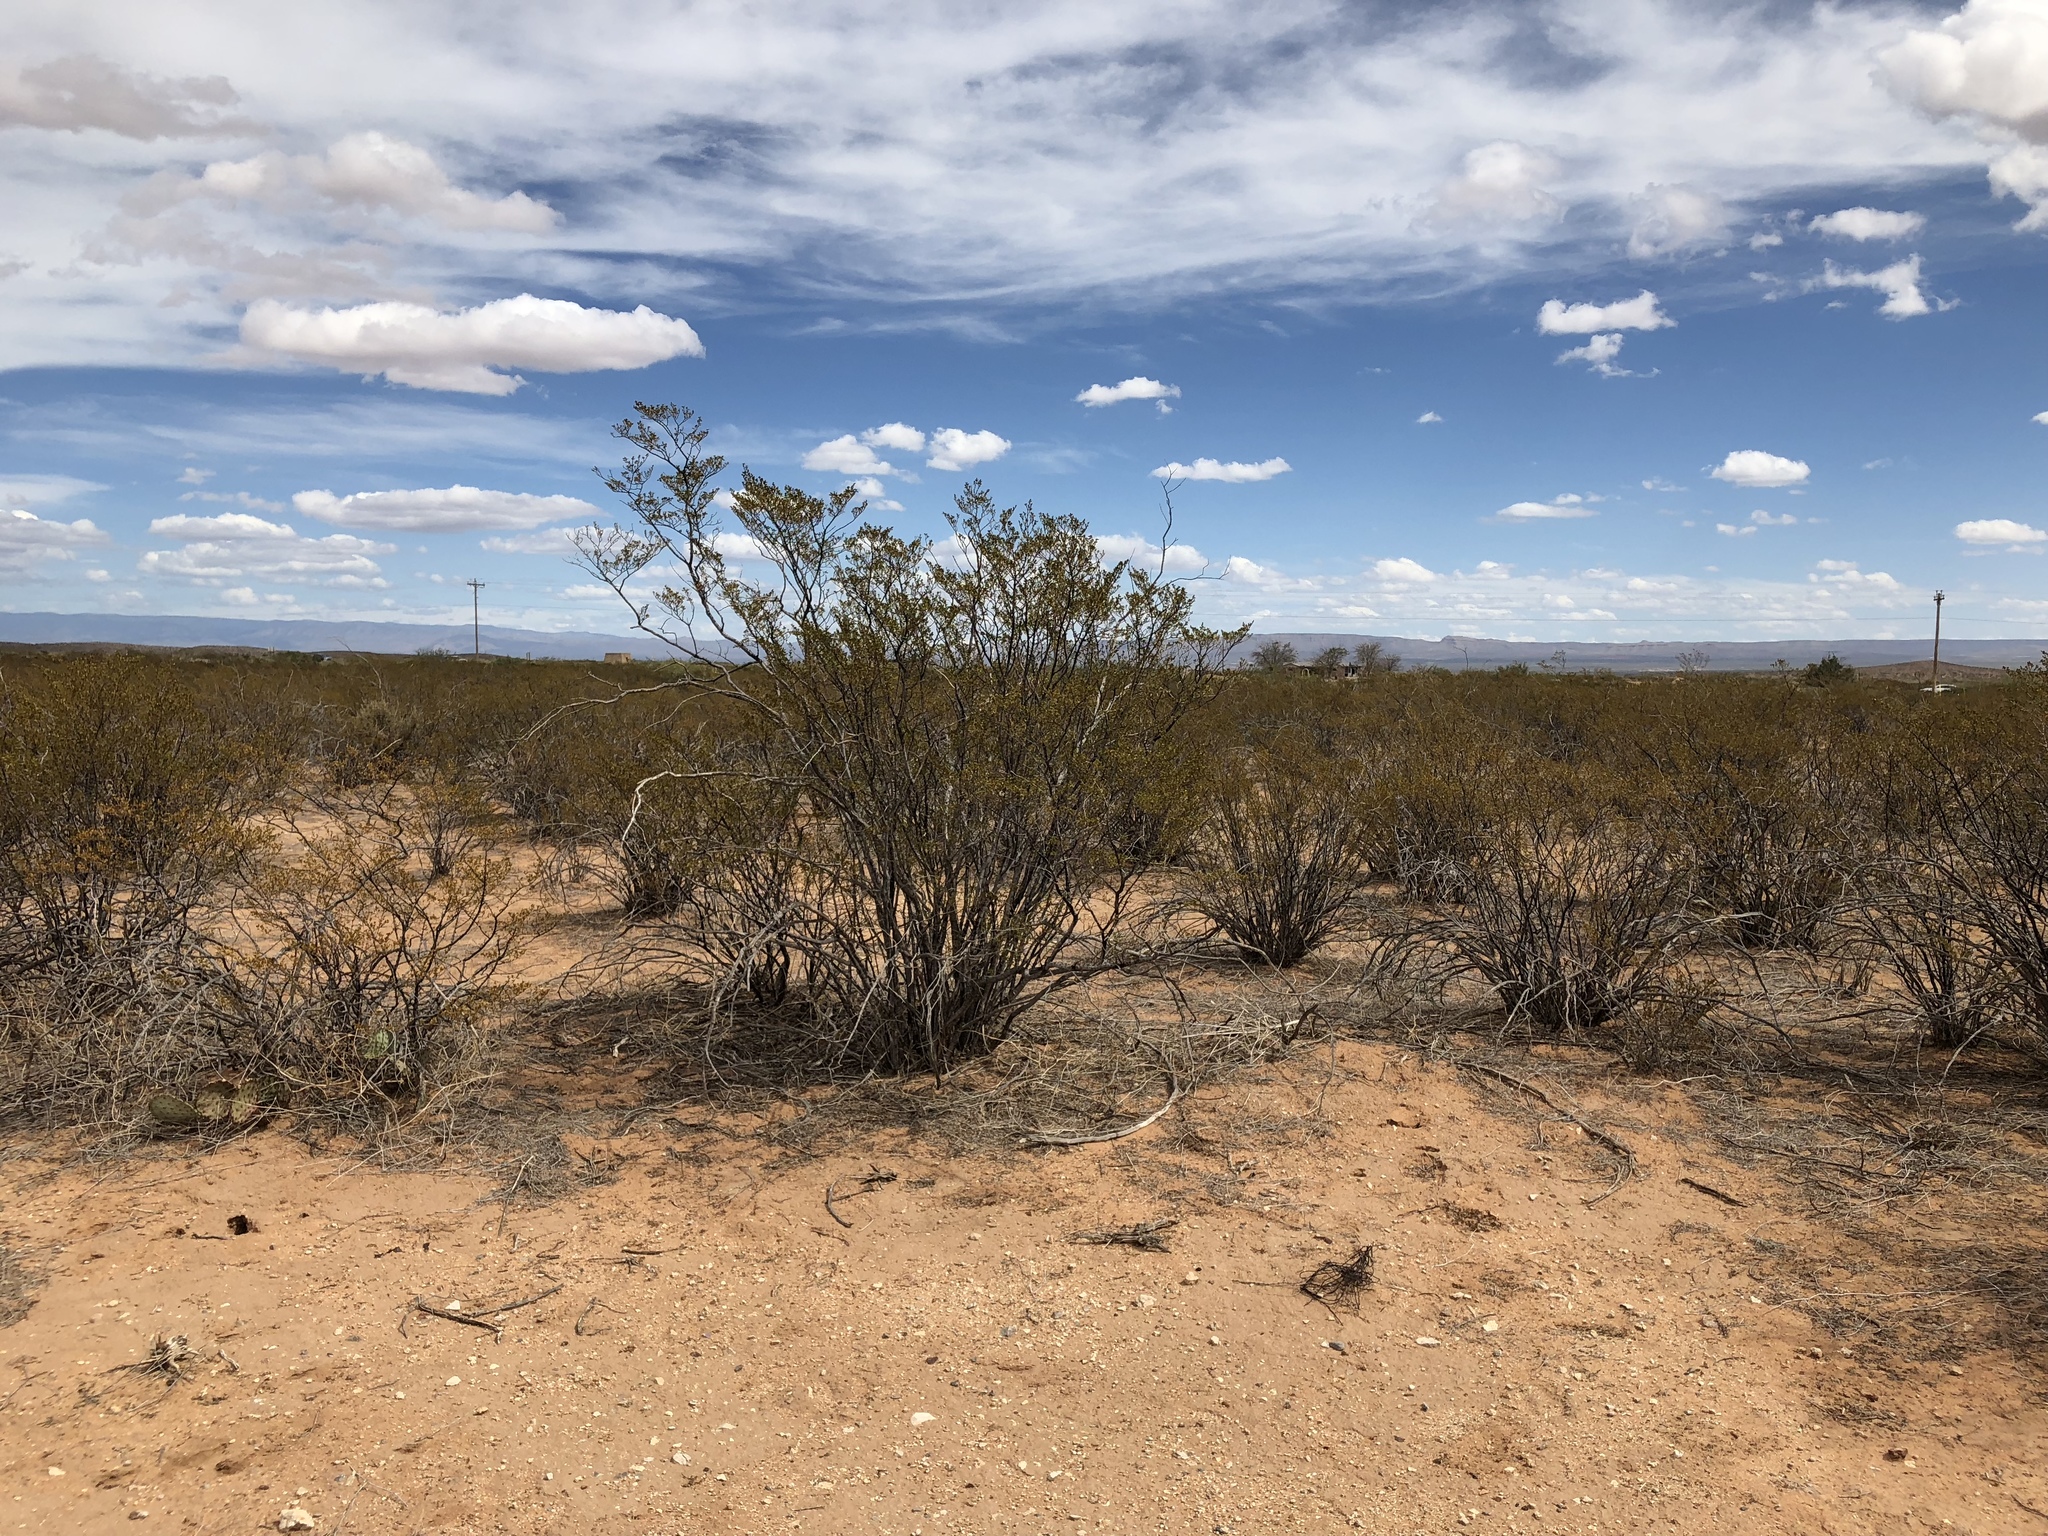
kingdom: Plantae
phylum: Tracheophyta
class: Magnoliopsida
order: Zygophyllales
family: Zygophyllaceae
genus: Larrea
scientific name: Larrea tridentata
